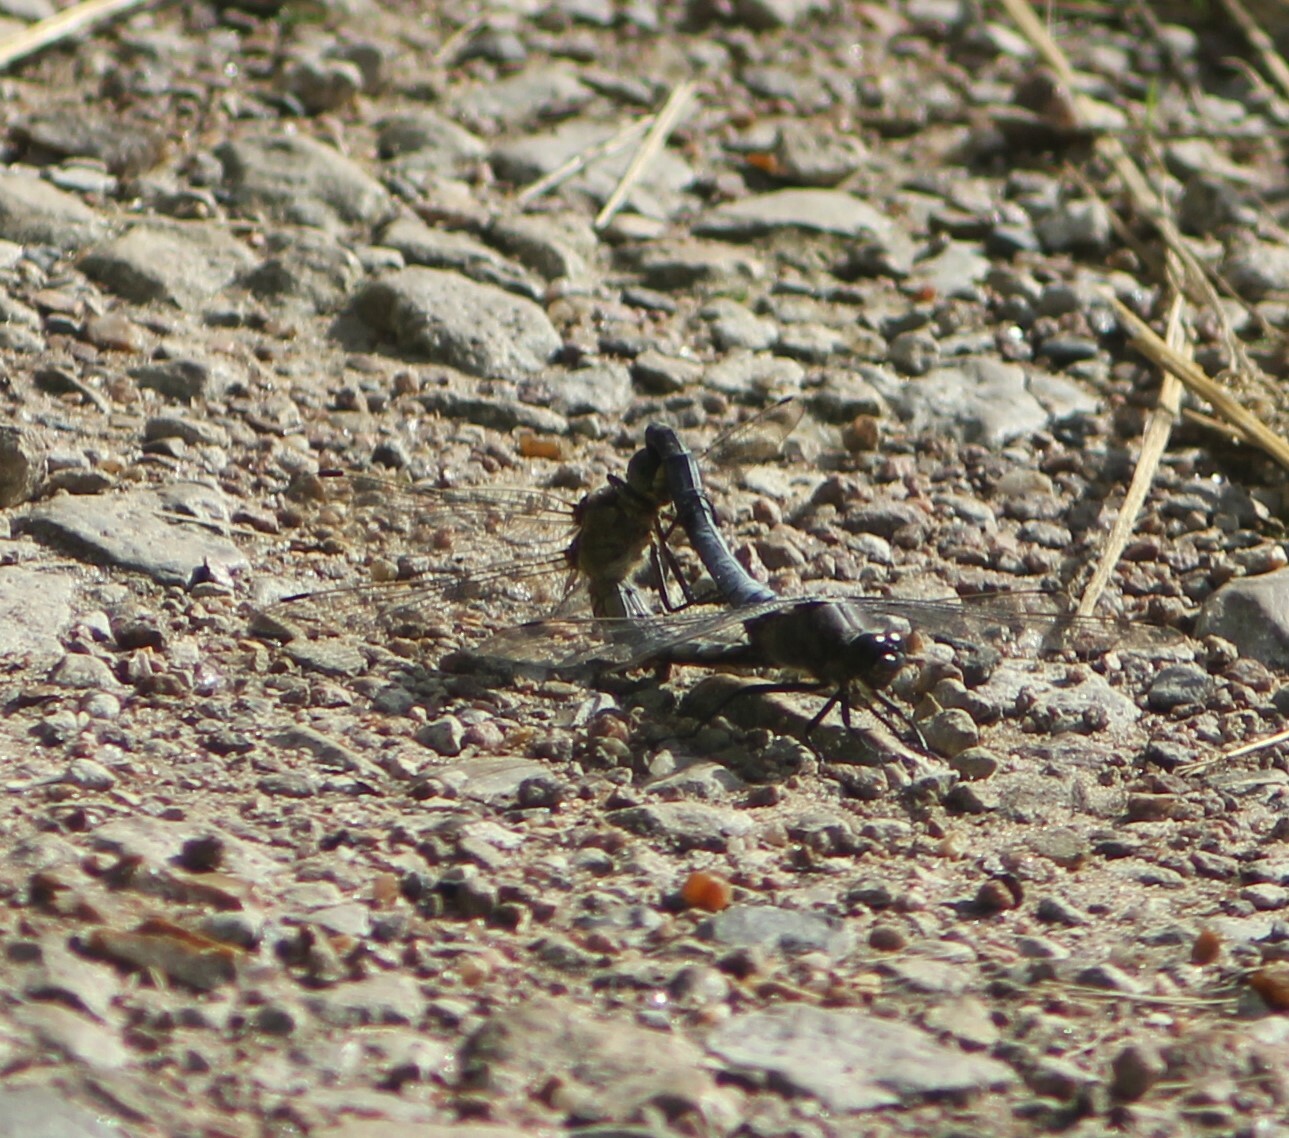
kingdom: Animalia
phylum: Arthropoda
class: Insecta
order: Odonata
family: Libellulidae
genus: Orthetrum
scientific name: Orthetrum cancellatum
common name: Black-tailed skimmer
